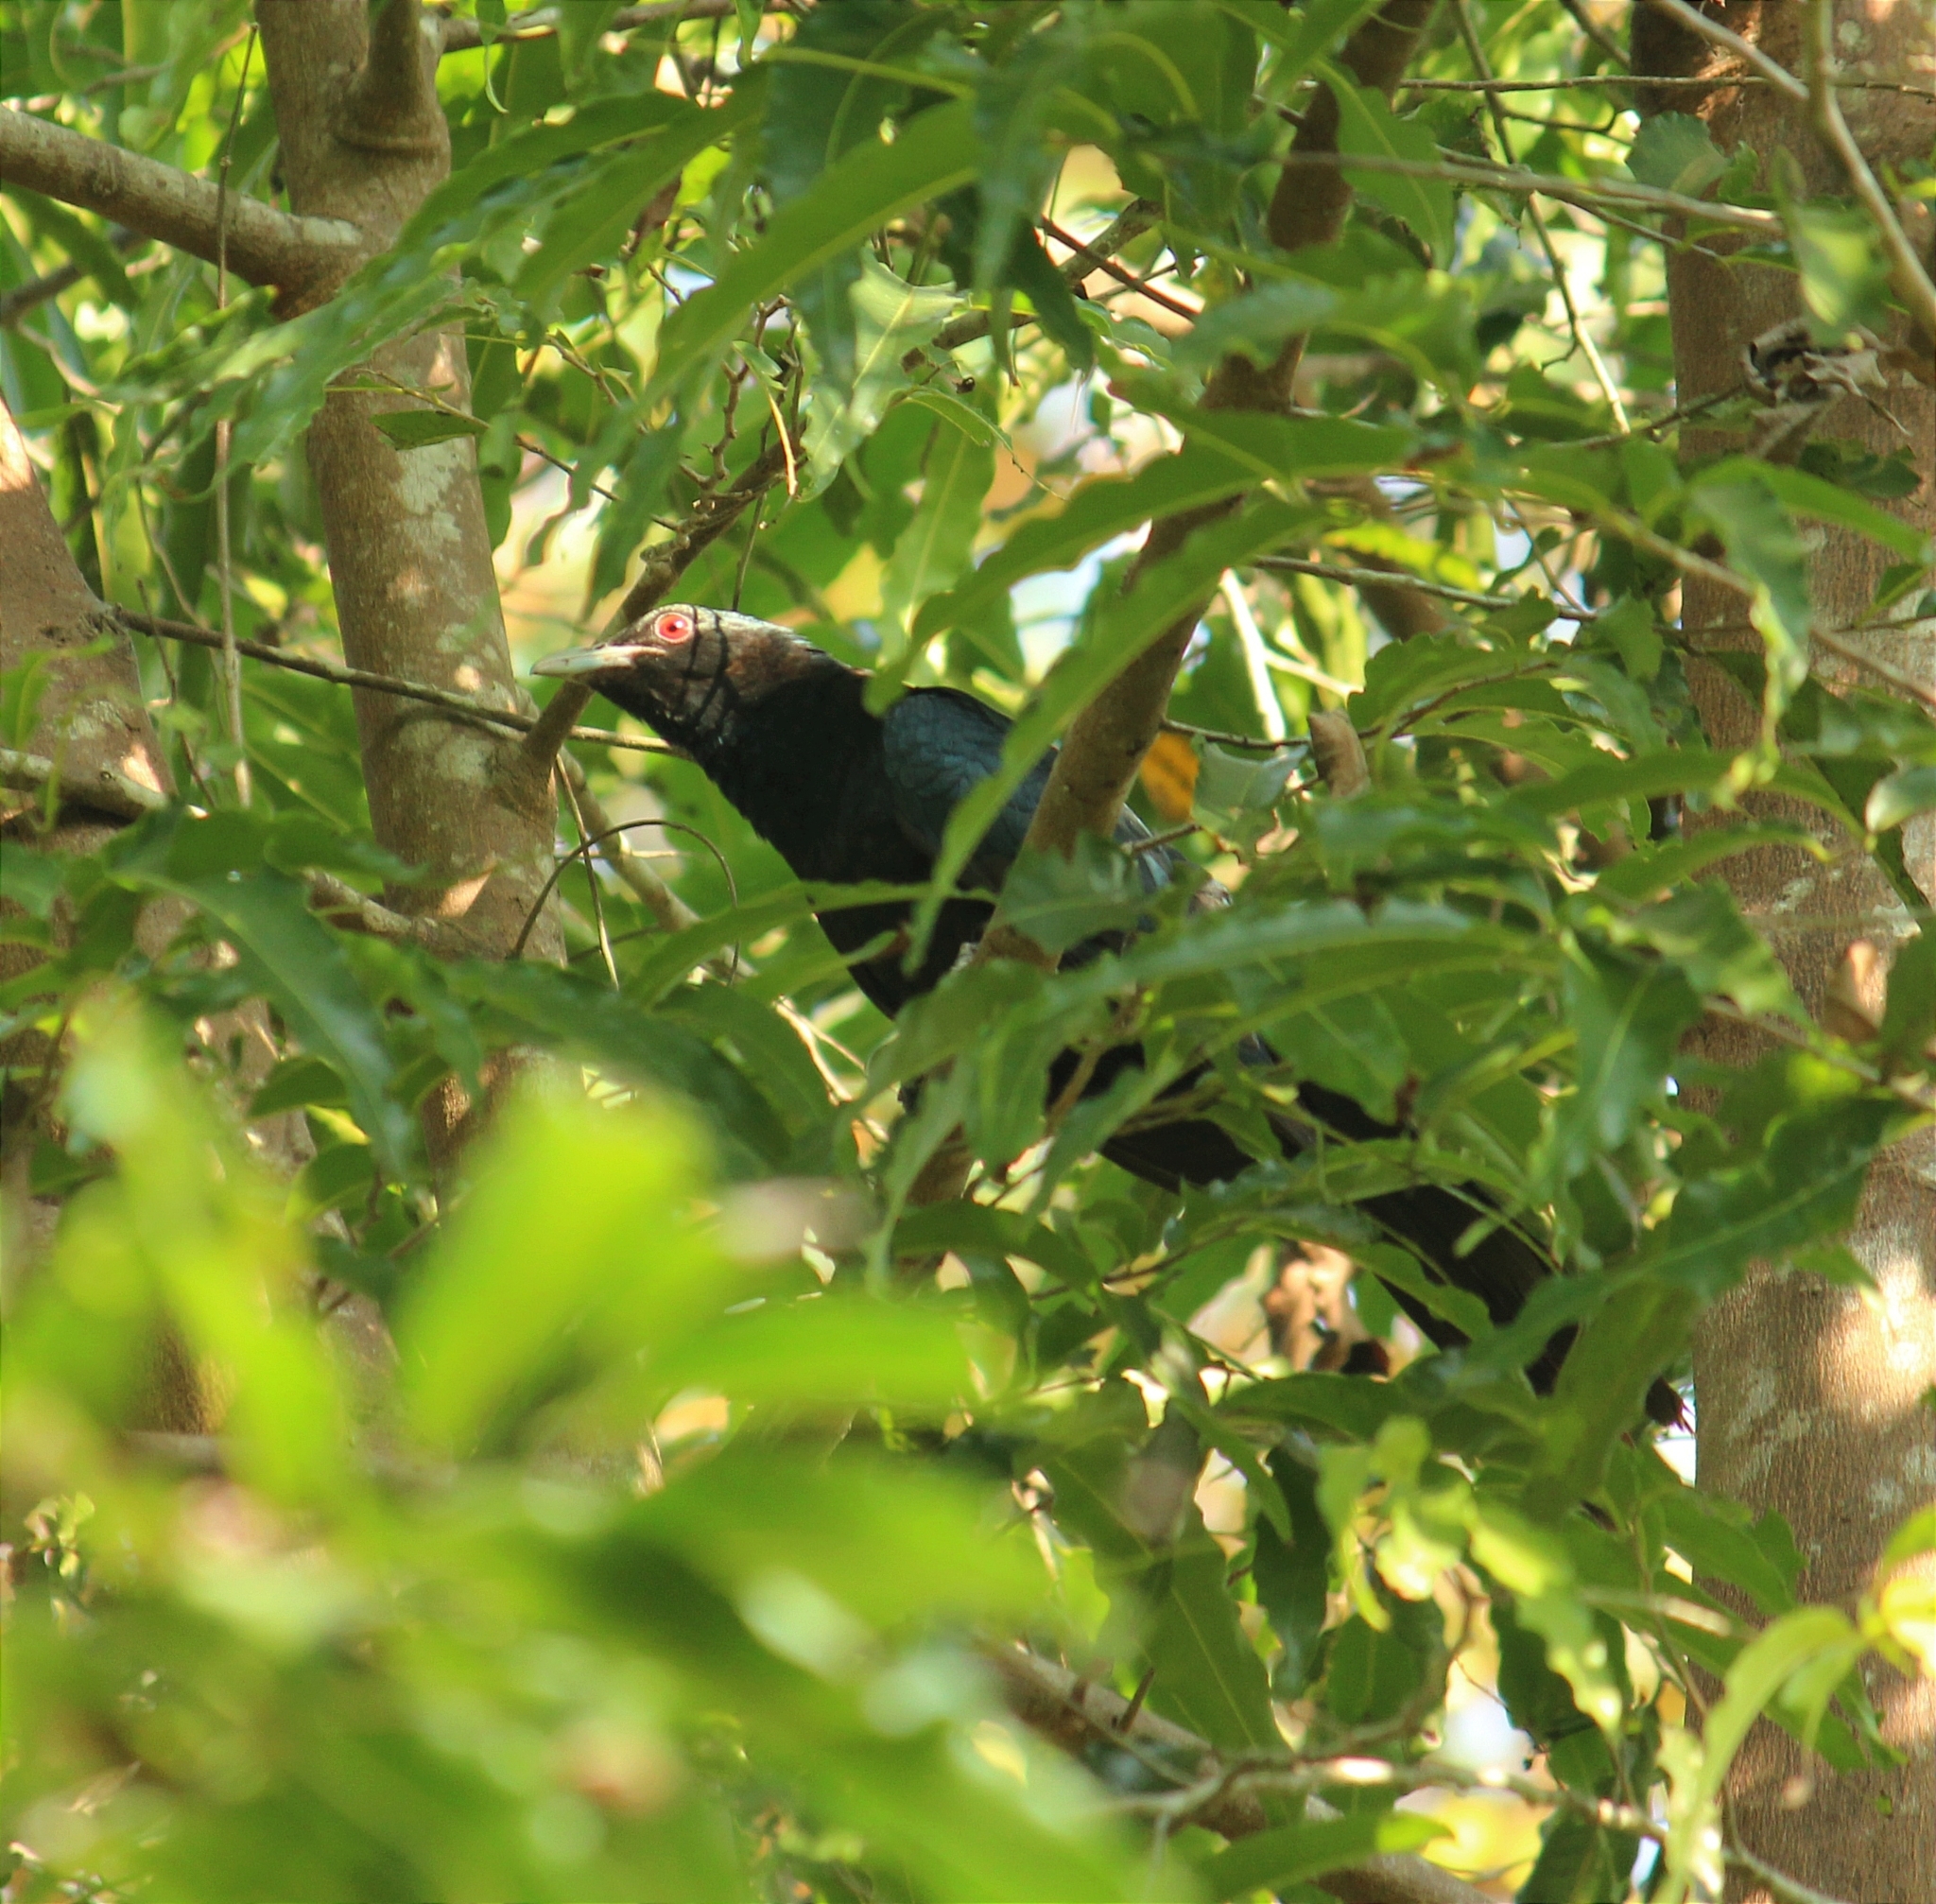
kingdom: Animalia
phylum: Chordata
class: Aves
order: Cuculiformes
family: Cuculidae
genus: Eudynamys
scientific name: Eudynamys scolopaceus
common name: Asian koel
